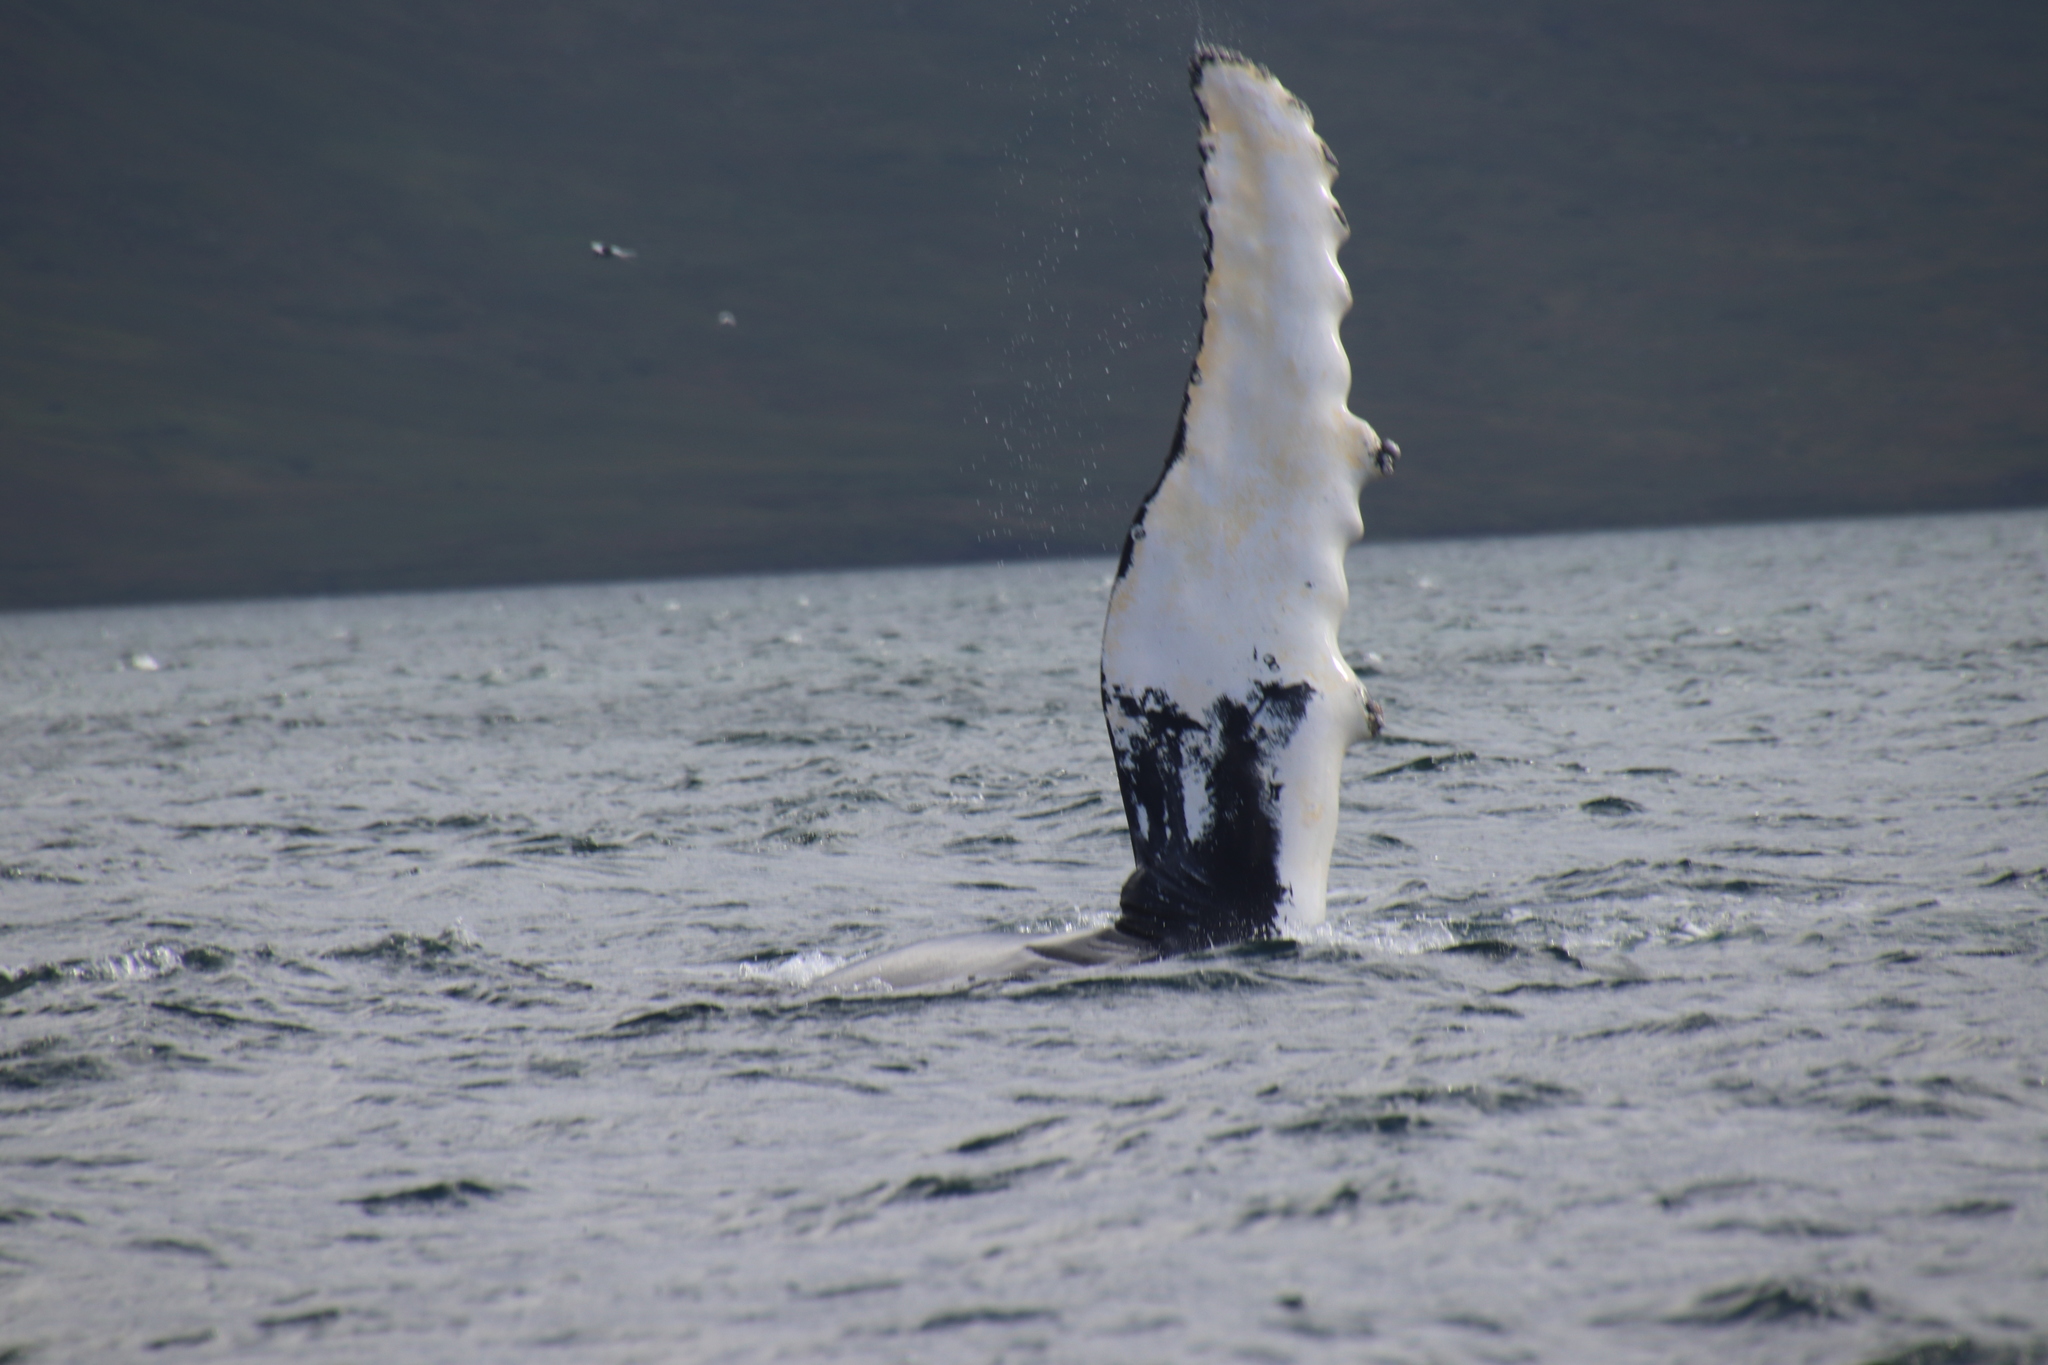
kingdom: Animalia
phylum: Chordata
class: Mammalia
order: Cetacea
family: Balaenopteridae
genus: Megaptera
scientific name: Megaptera novaeangliae
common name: Humpback whale
